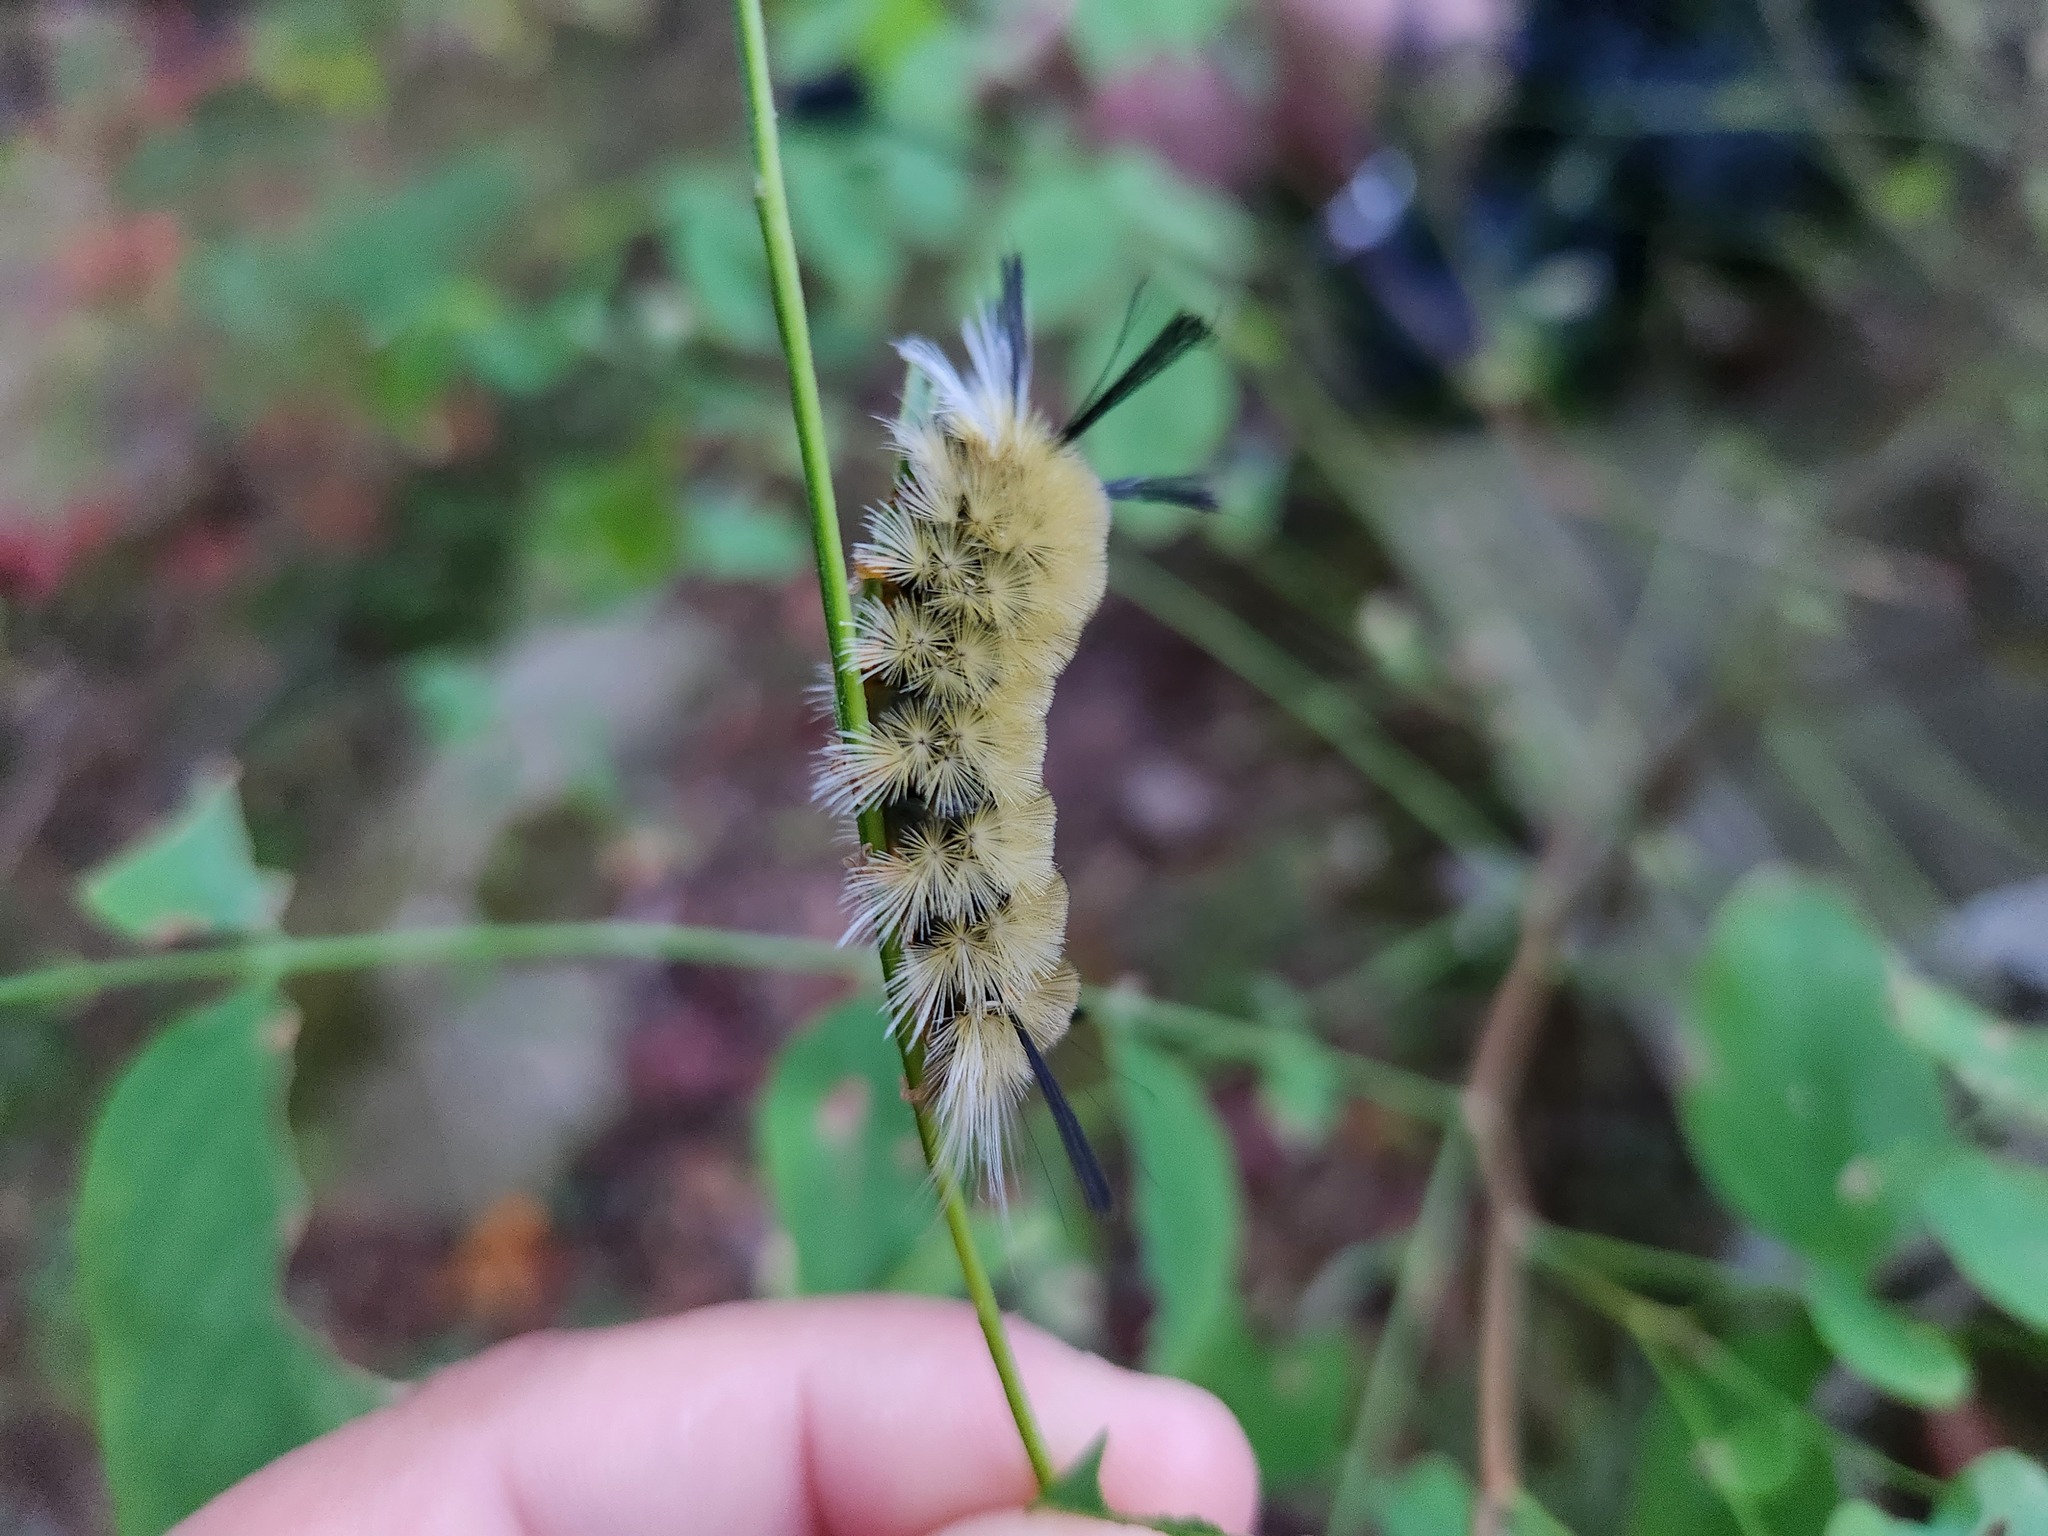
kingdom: Animalia
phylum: Arthropoda
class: Insecta
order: Lepidoptera
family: Erebidae
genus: Halysidota
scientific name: Halysidota tessellaris
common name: Banded tussock moth
